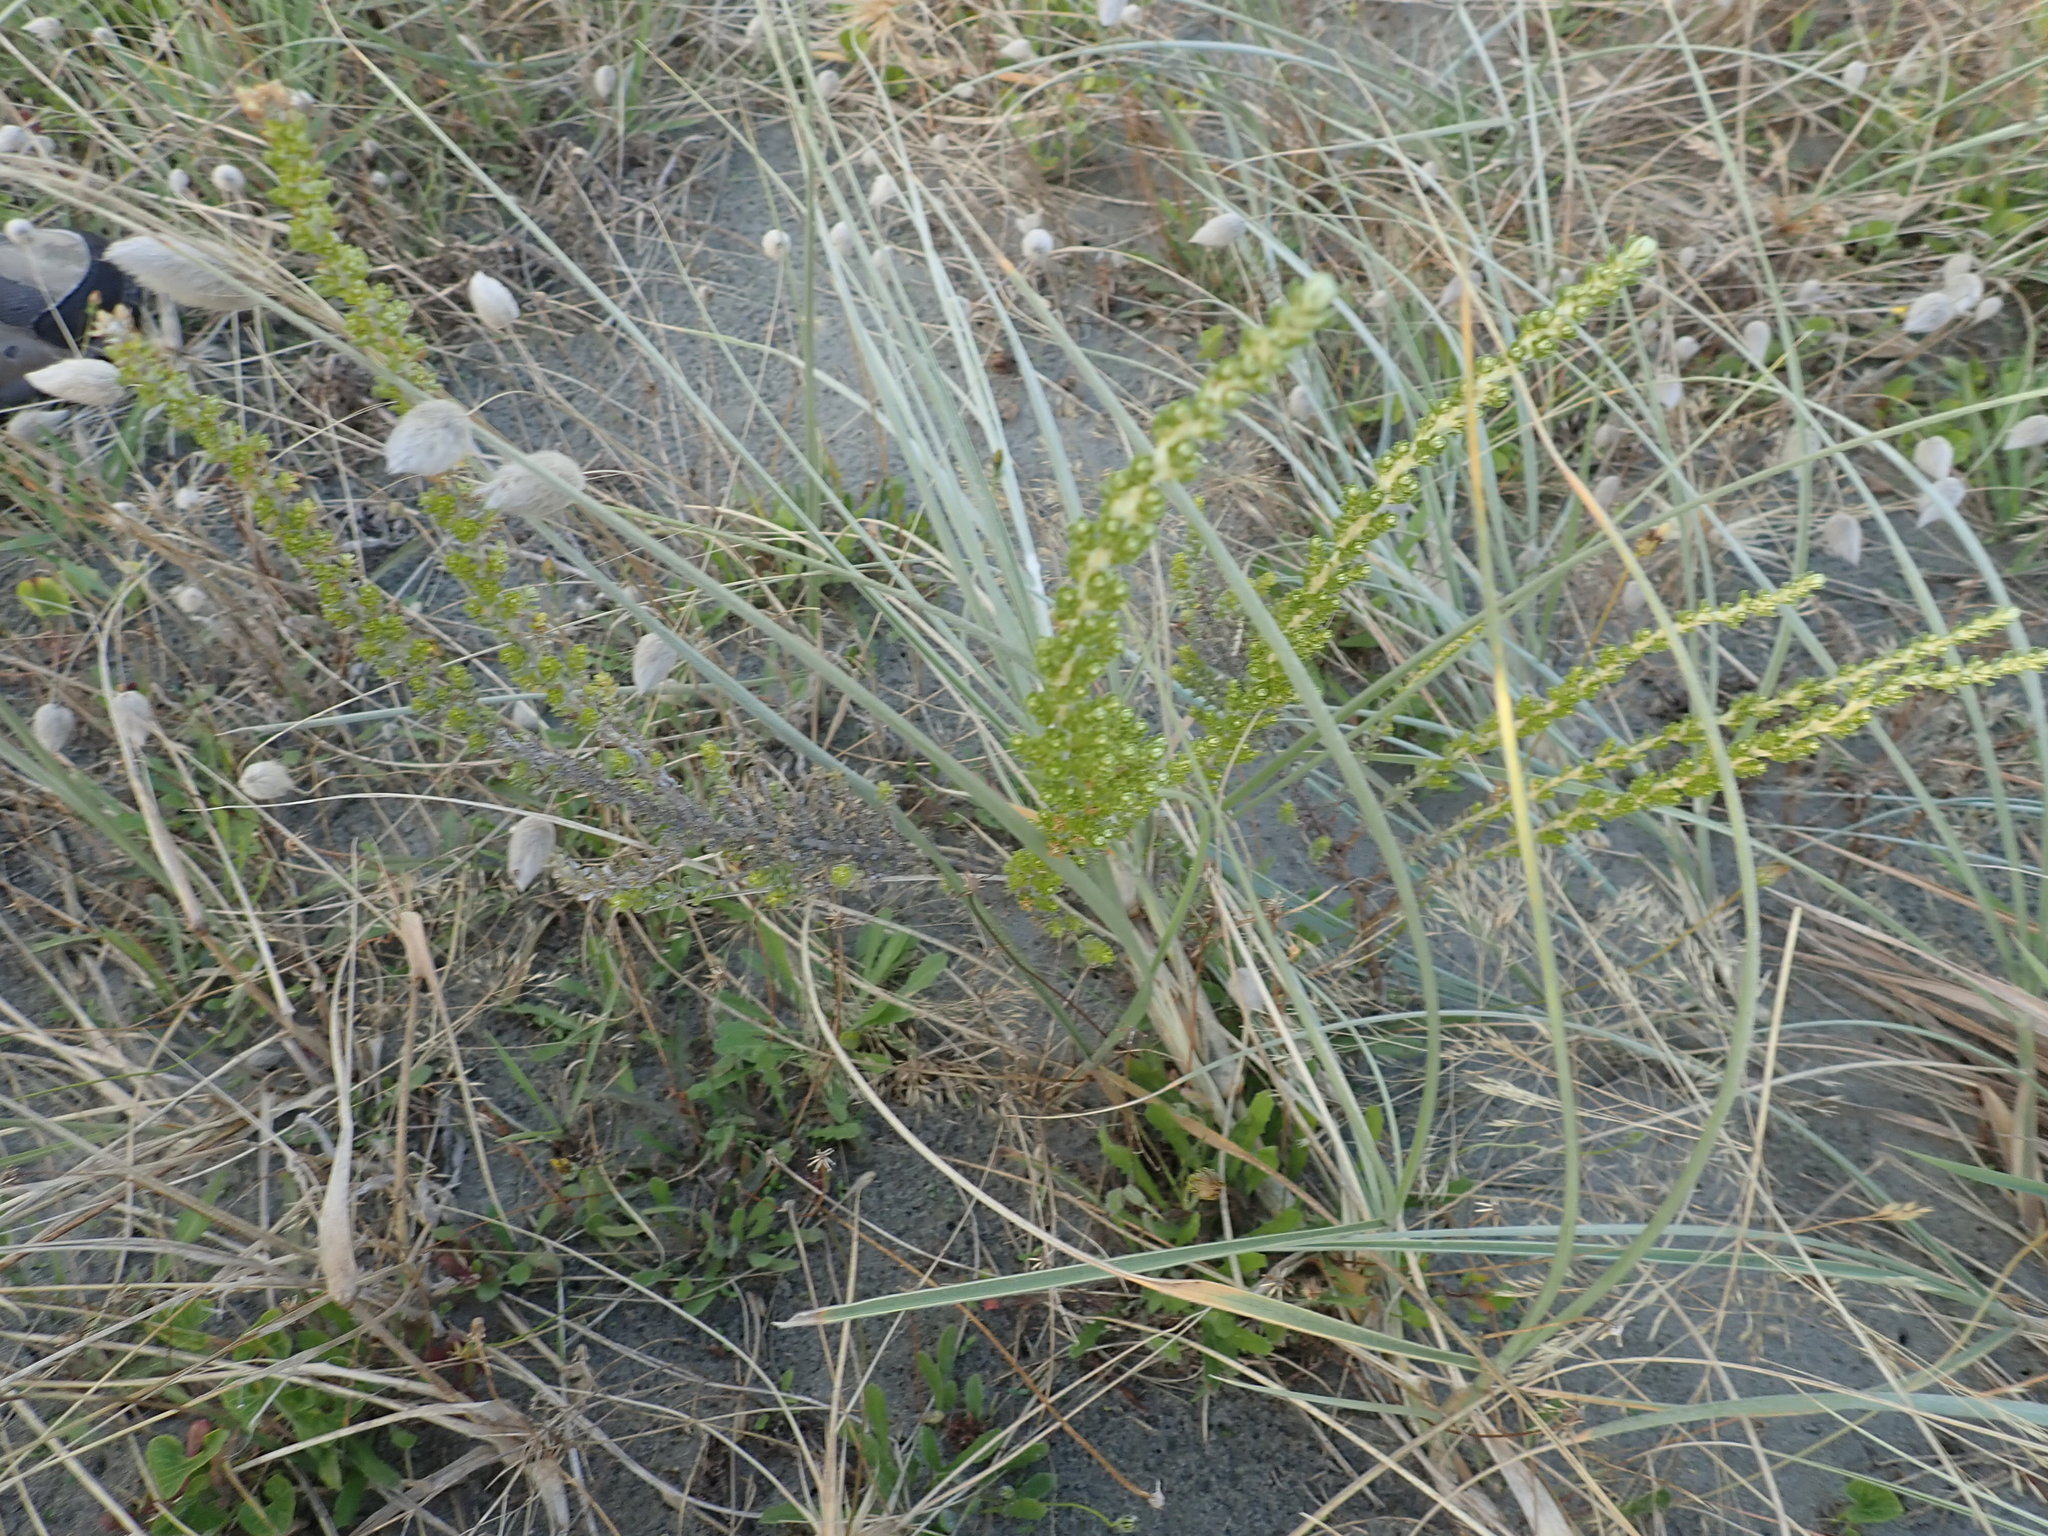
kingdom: Plantae
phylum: Tracheophyta
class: Magnoliopsida
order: Asterales
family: Asteraceae
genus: Ozothamnus
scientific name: Ozothamnus leptophyllus
